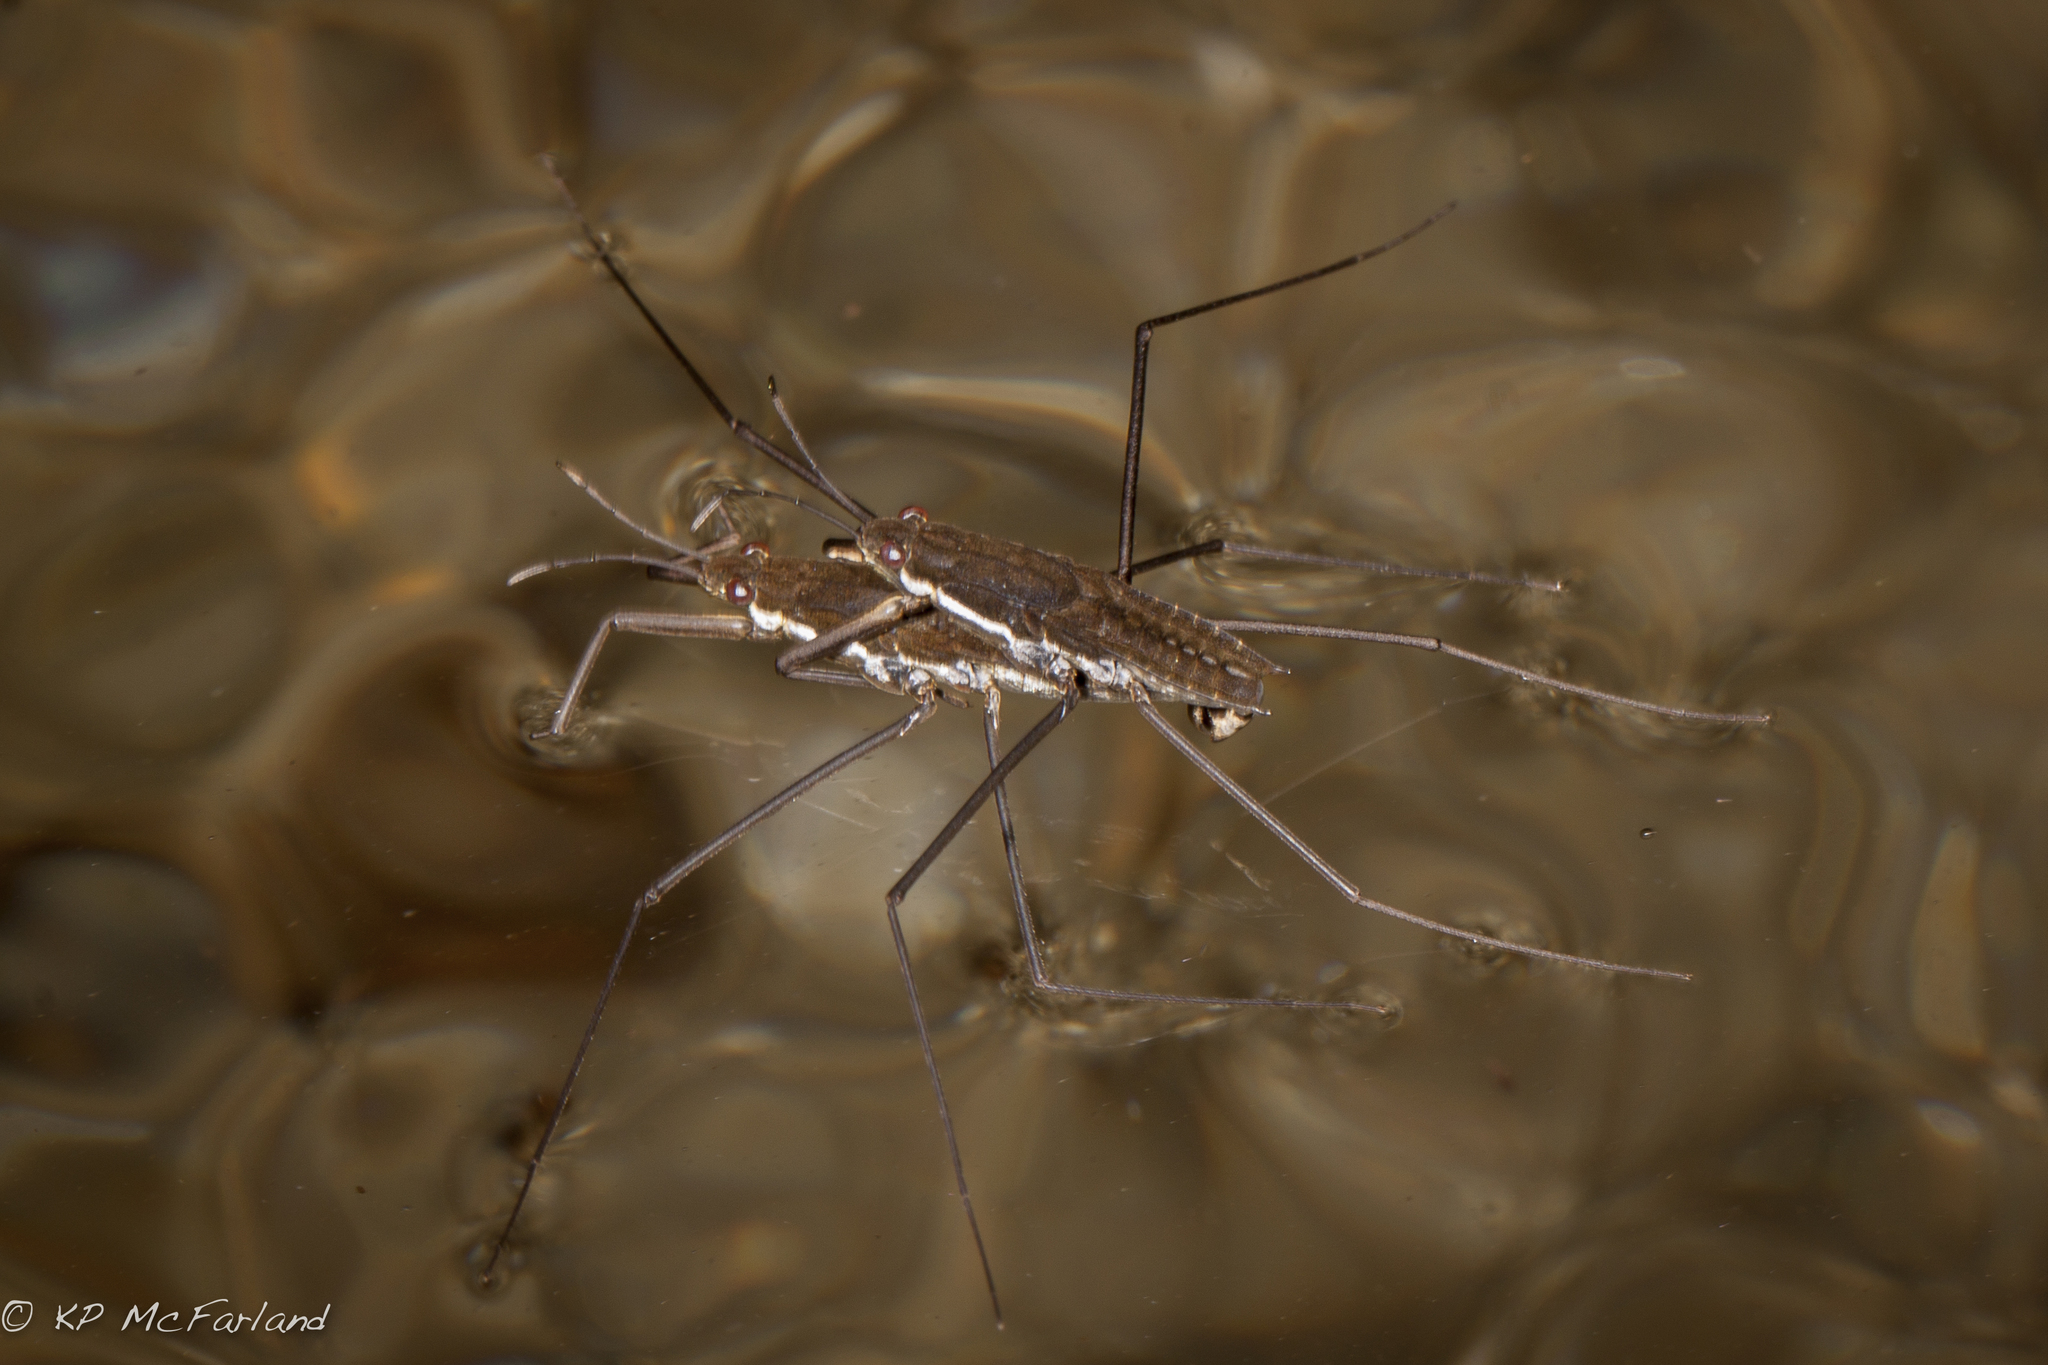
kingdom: Animalia
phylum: Arthropoda
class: Insecta
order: Hemiptera
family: Gerridae
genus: Aquarius
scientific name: Aquarius remigis
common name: Common water strider
